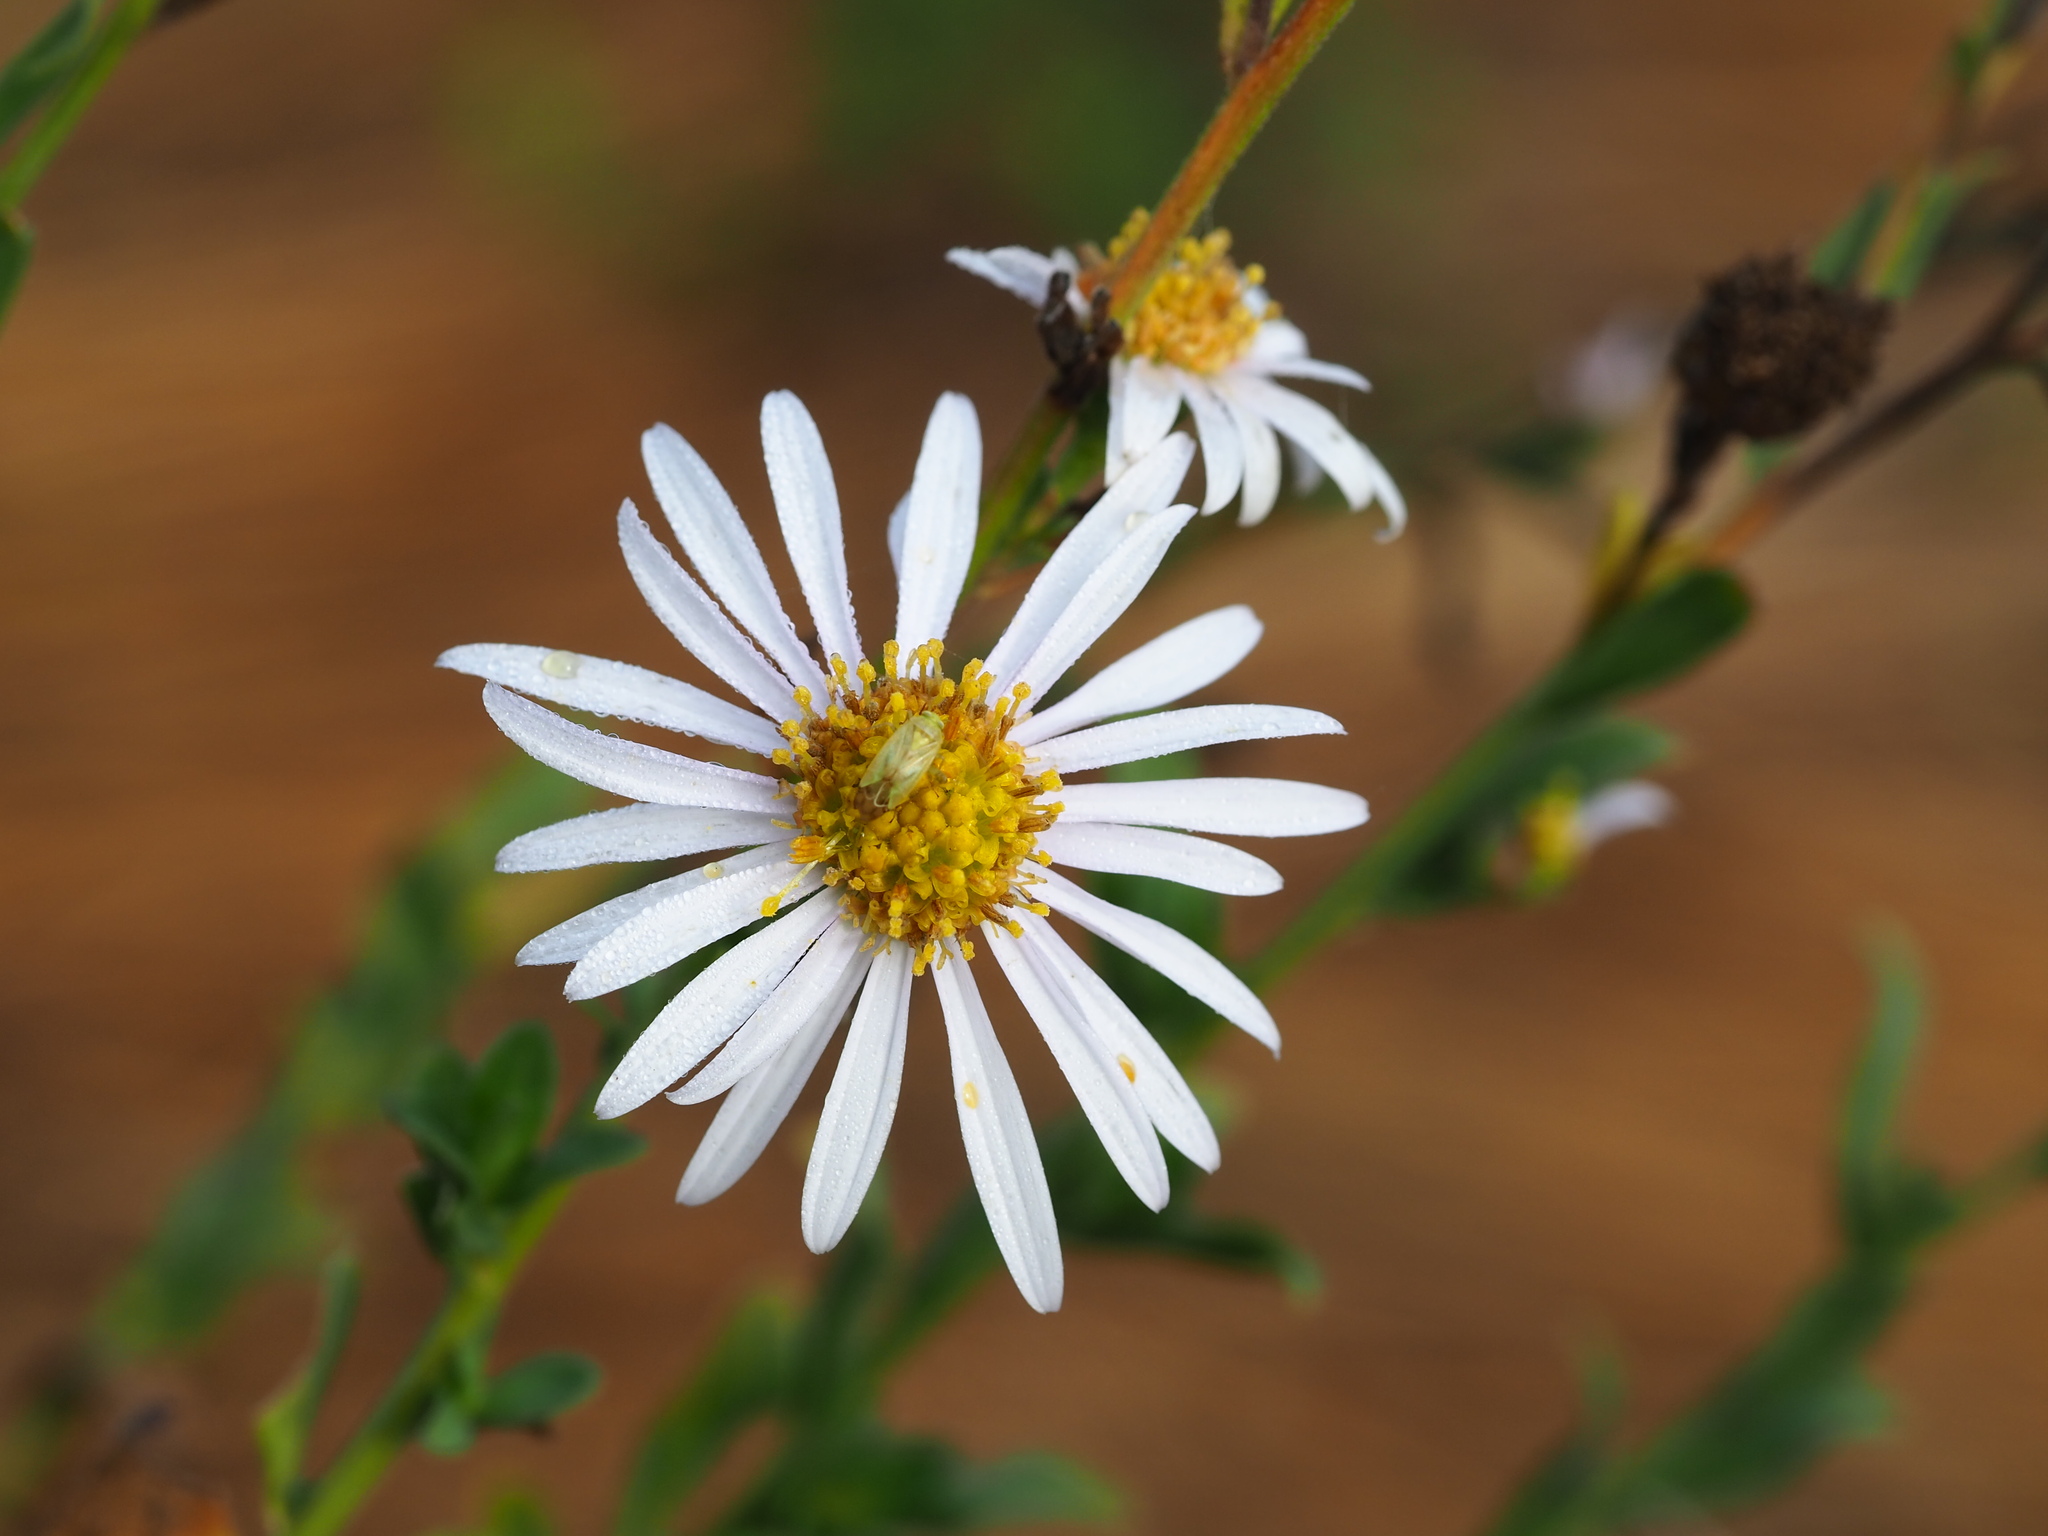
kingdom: Plantae
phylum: Tracheophyta
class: Magnoliopsida
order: Asterales
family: Asteraceae
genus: Aster
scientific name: Aster shimadae
